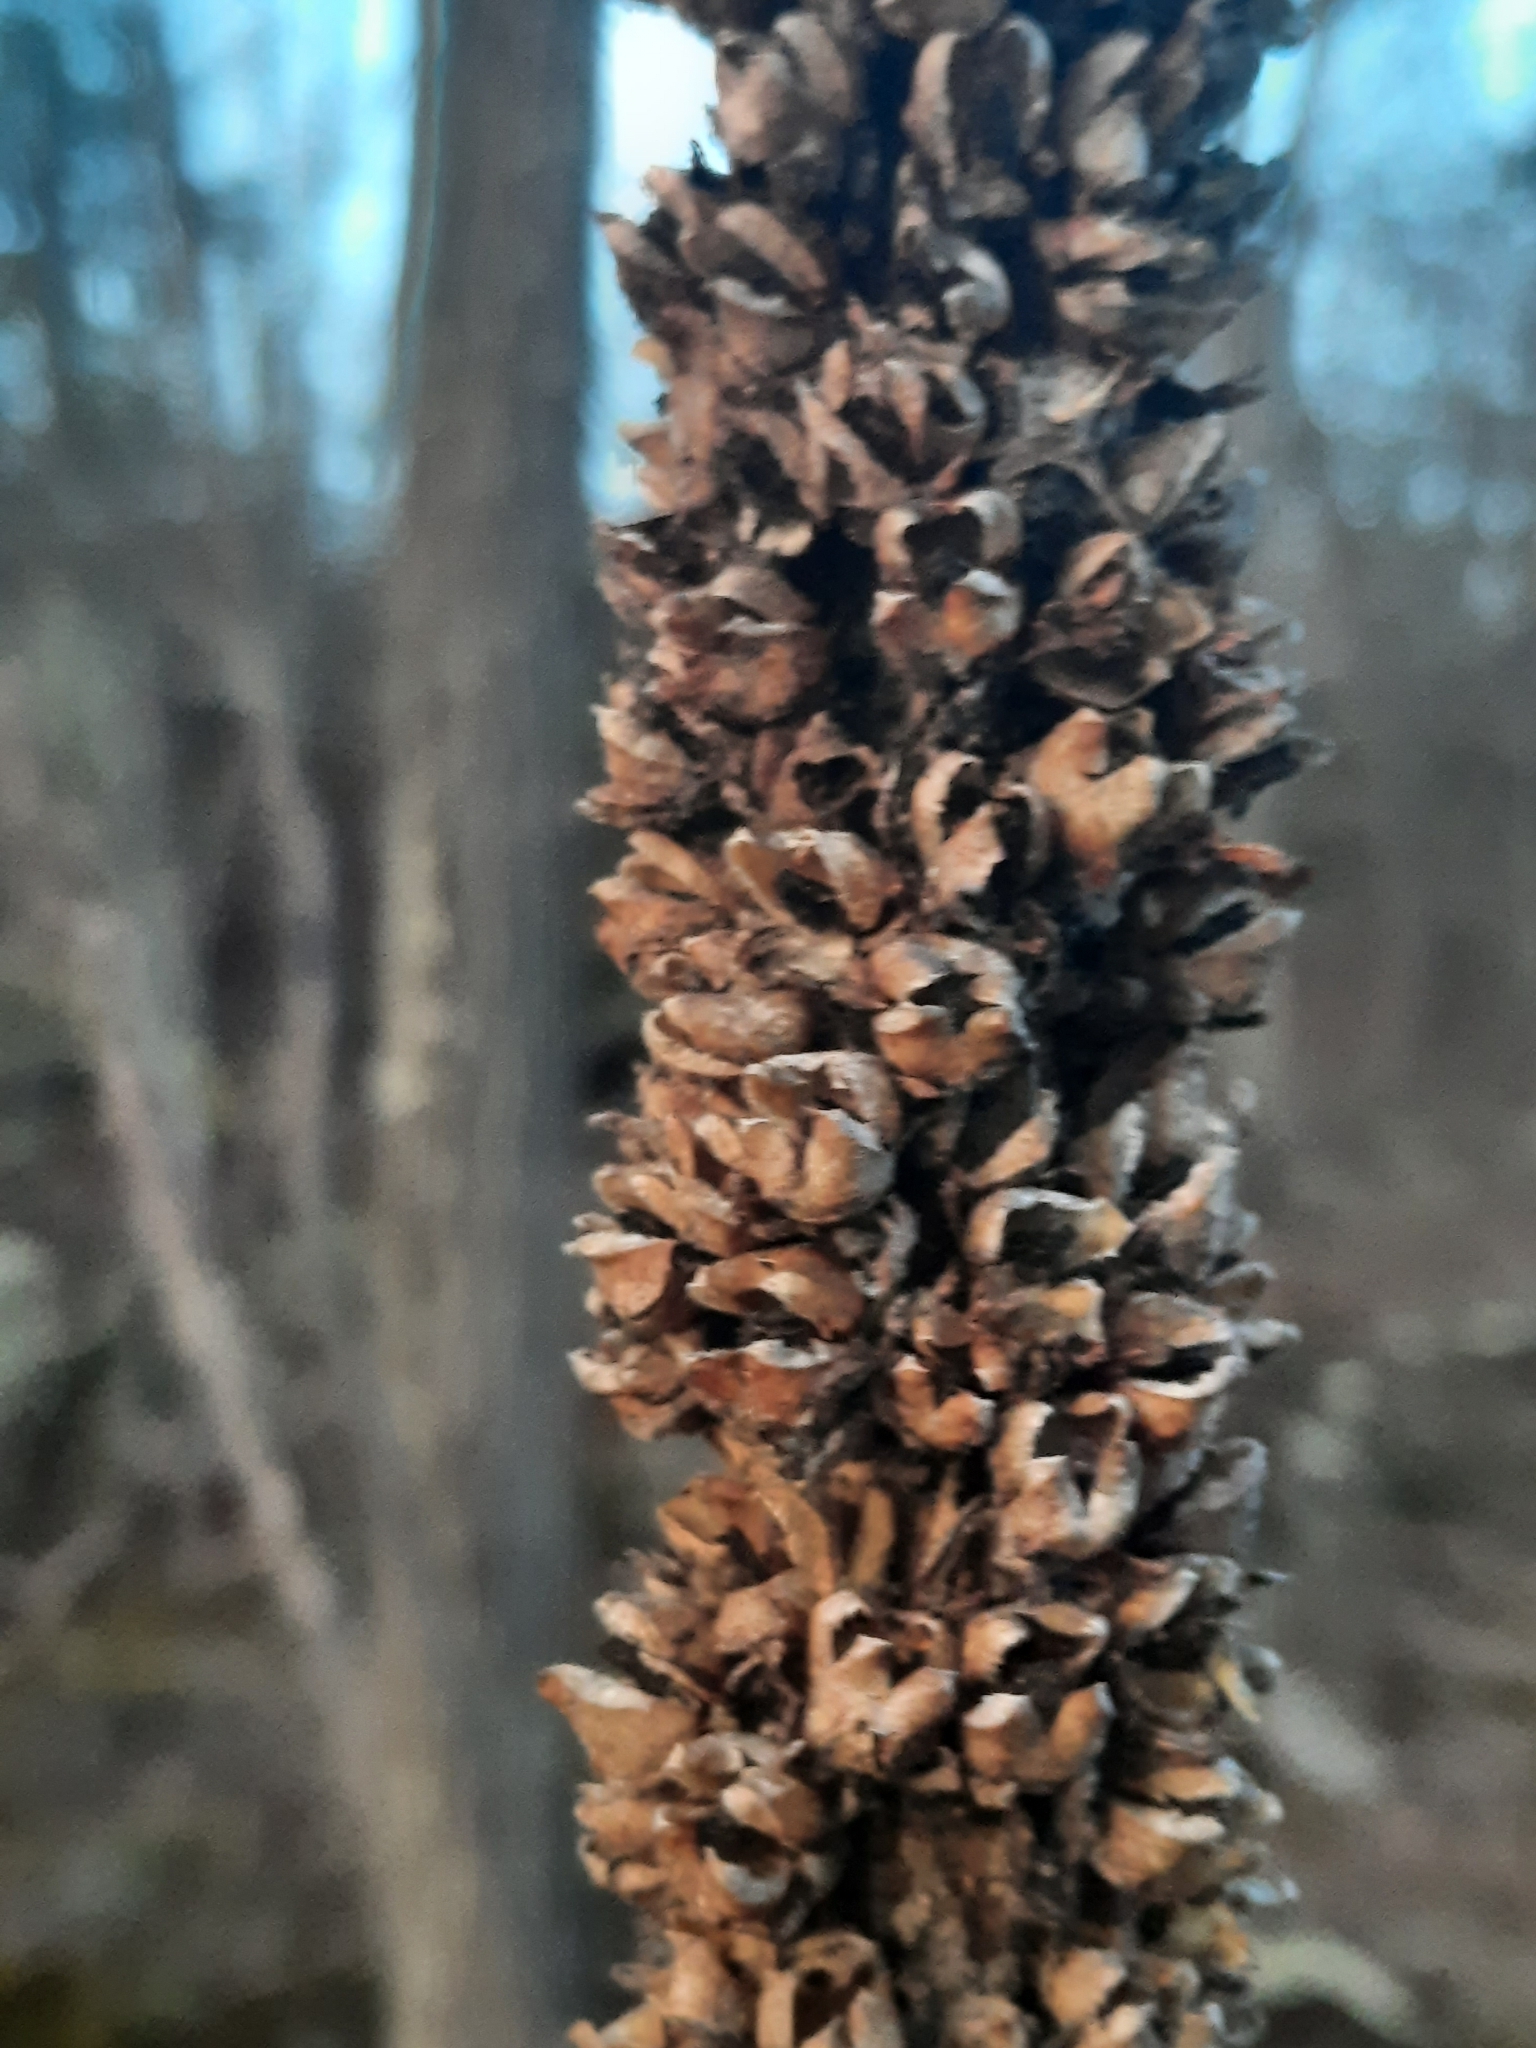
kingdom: Plantae
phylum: Tracheophyta
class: Magnoliopsida
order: Lamiales
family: Scrophulariaceae
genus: Verbascum
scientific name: Verbascum thapsus
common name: Common mullein
